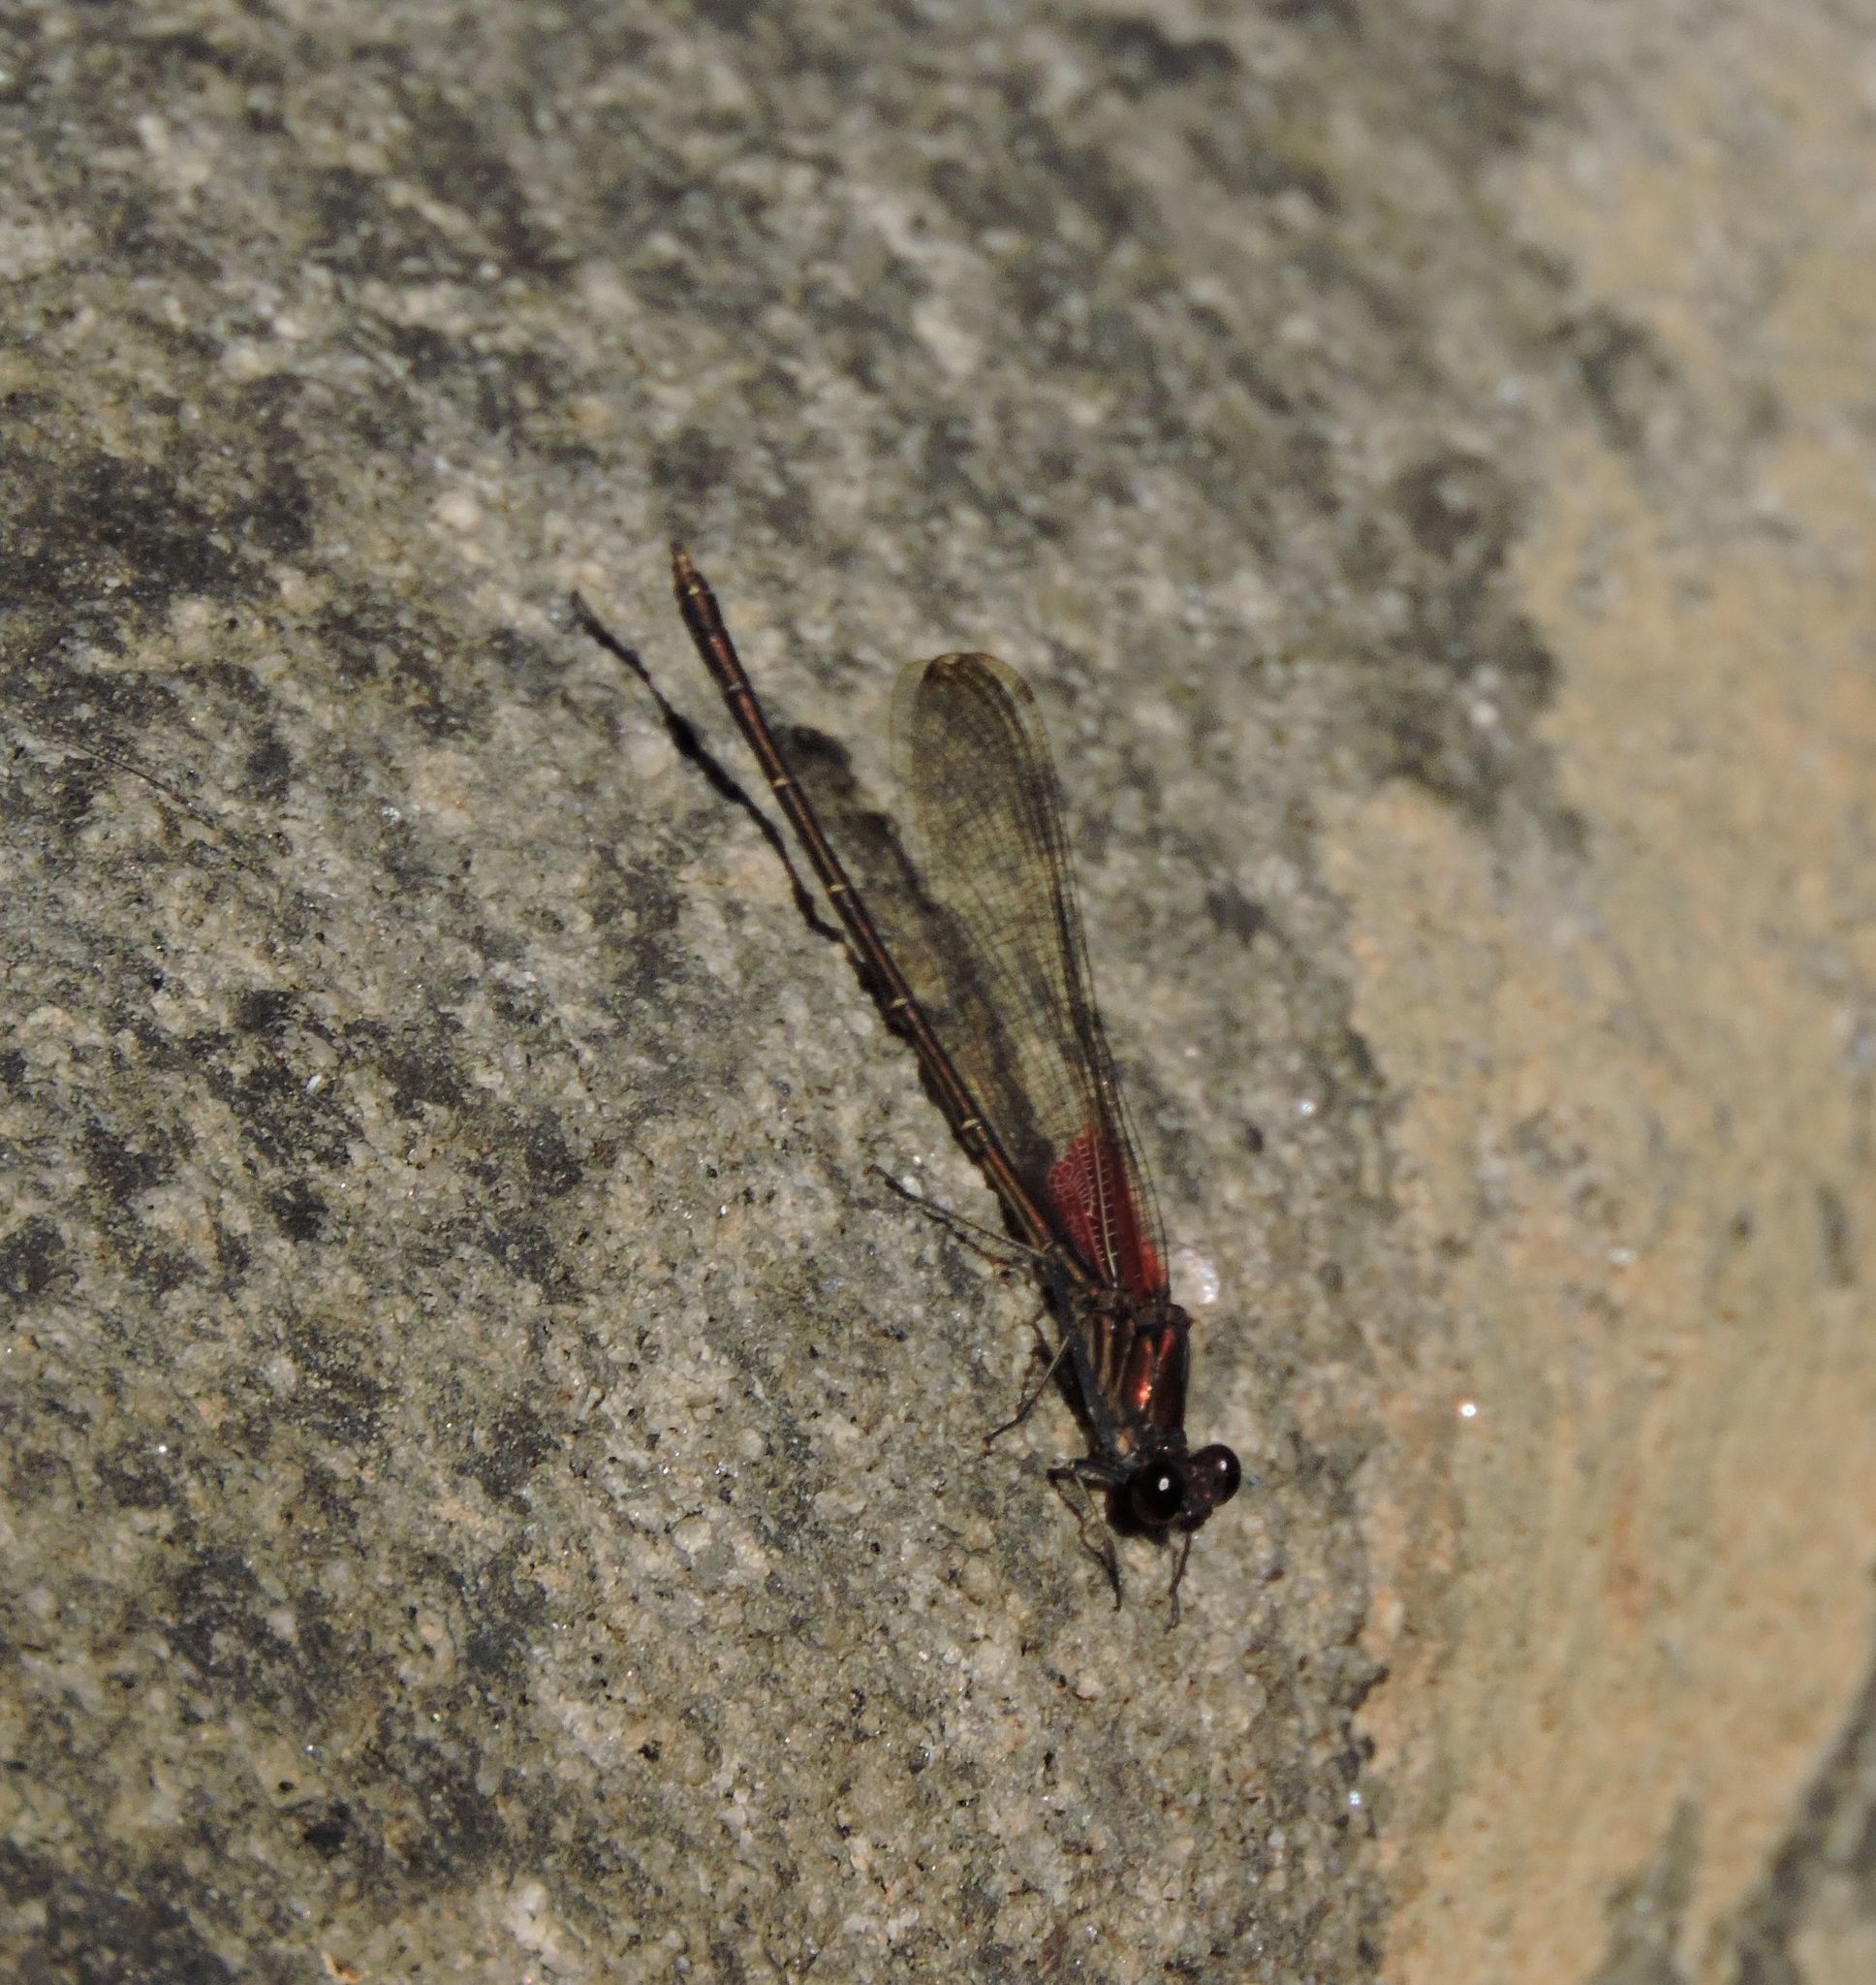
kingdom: Animalia
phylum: Arthropoda
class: Insecta
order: Odonata
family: Calopterygidae
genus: Hetaerina
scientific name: Hetaerina americana
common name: American rubyspot
